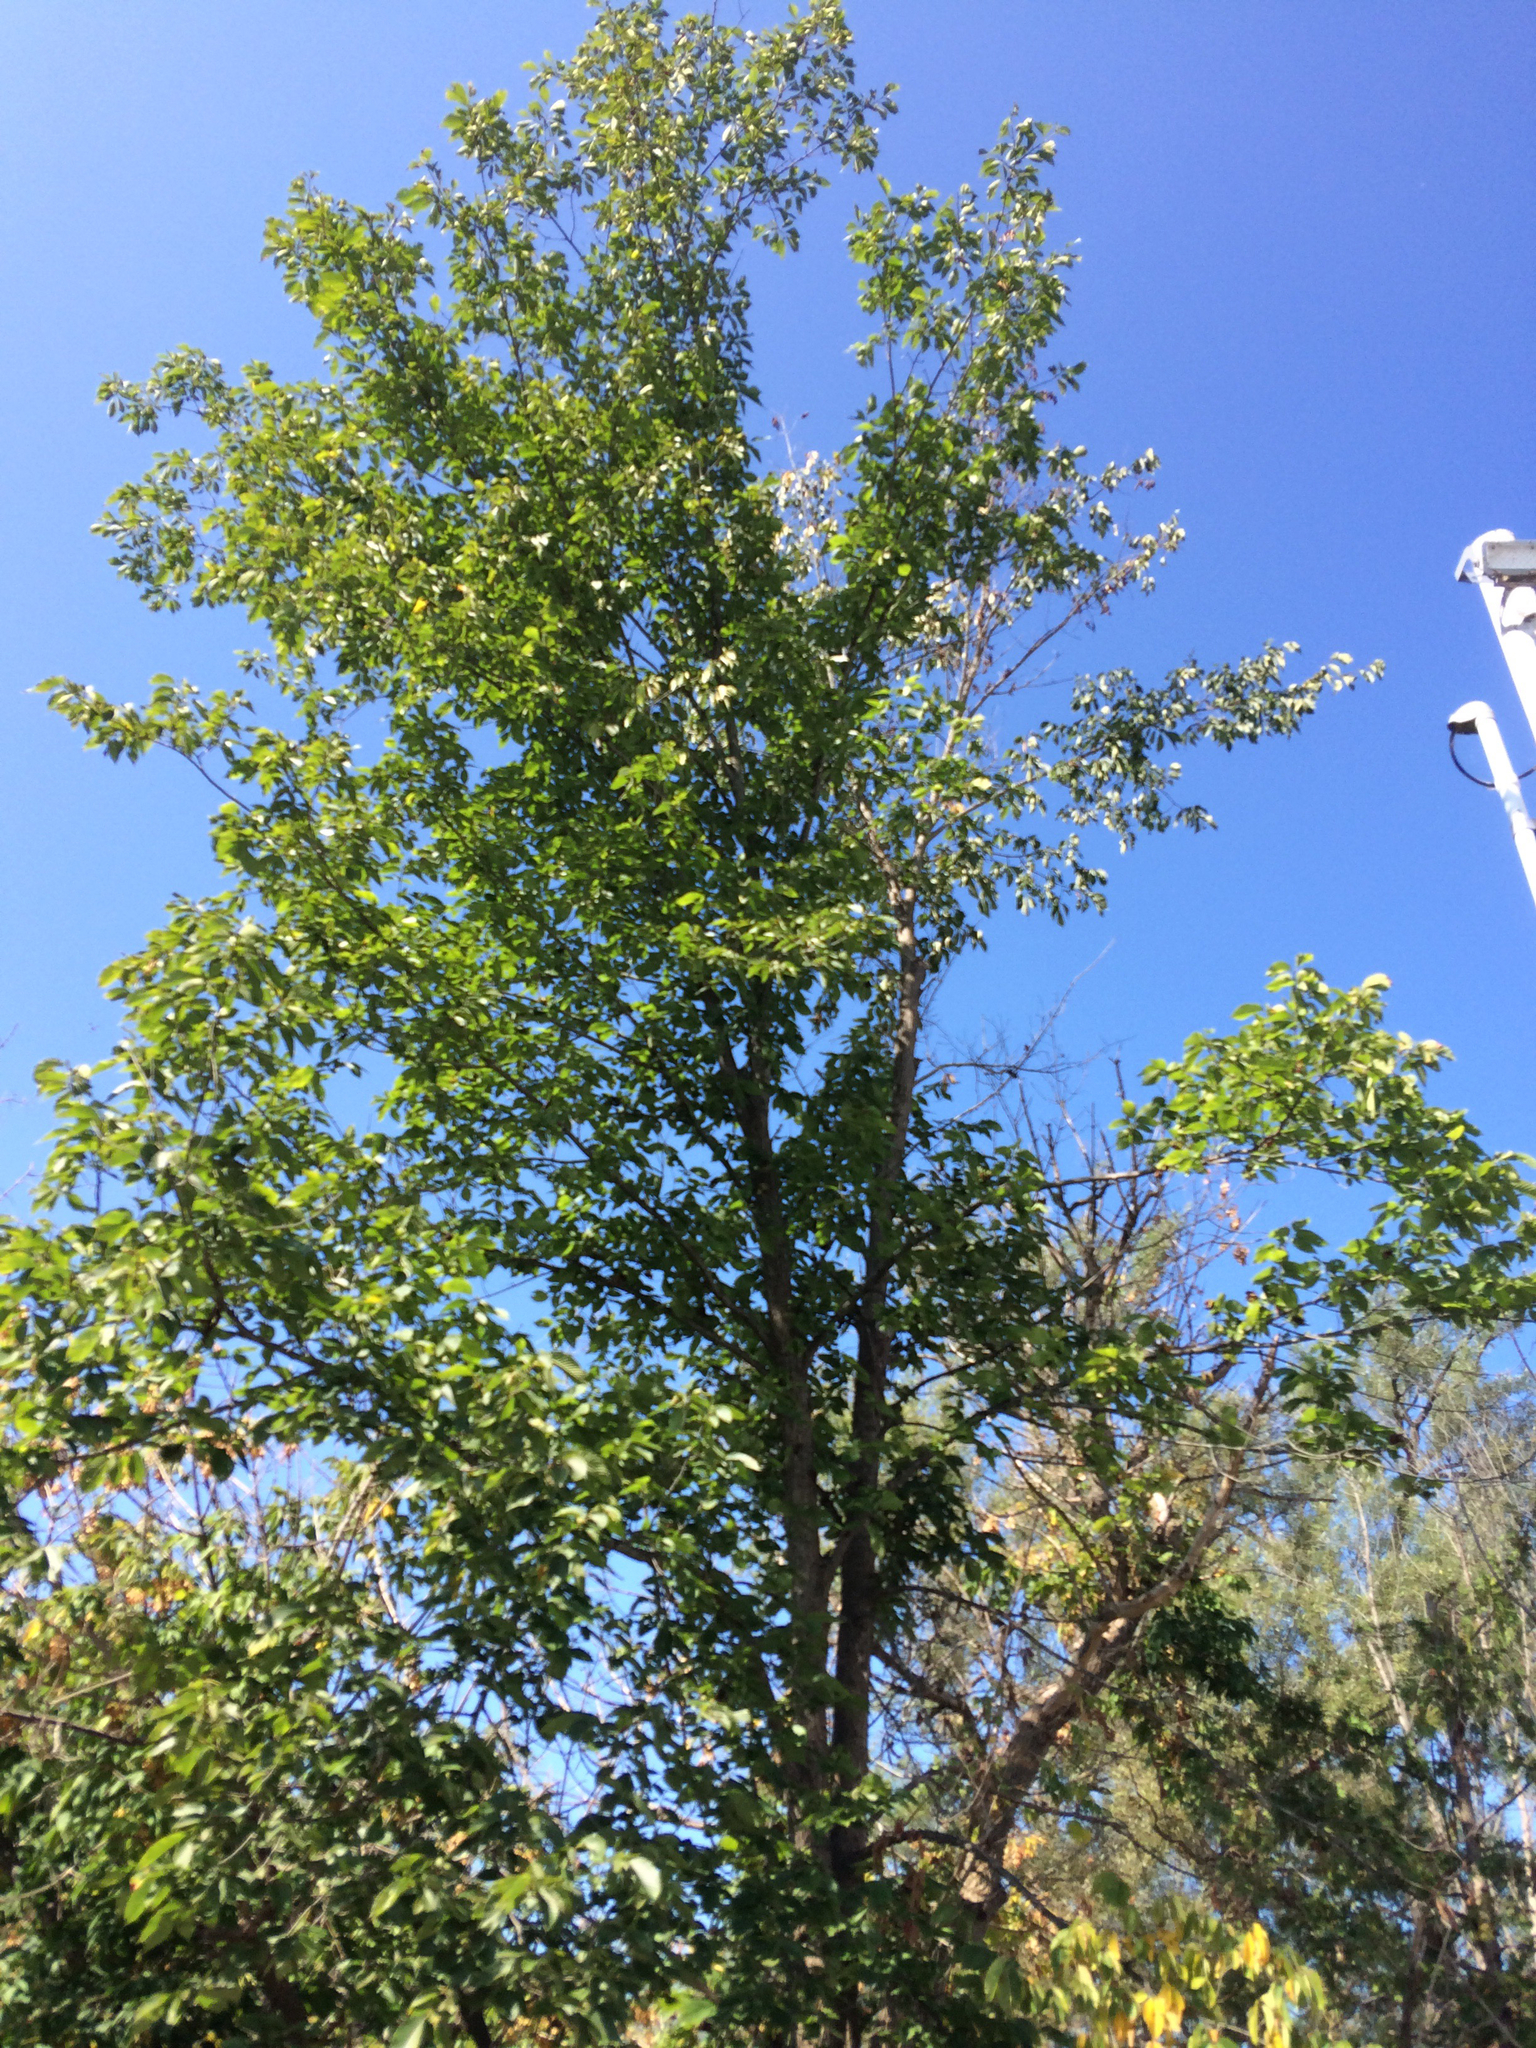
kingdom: Plantae
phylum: Tracheophyta
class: Magnoliopsida
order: Rosales
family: Ulmaceae
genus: Ulmus
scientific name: Ulmus americana
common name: American elm
